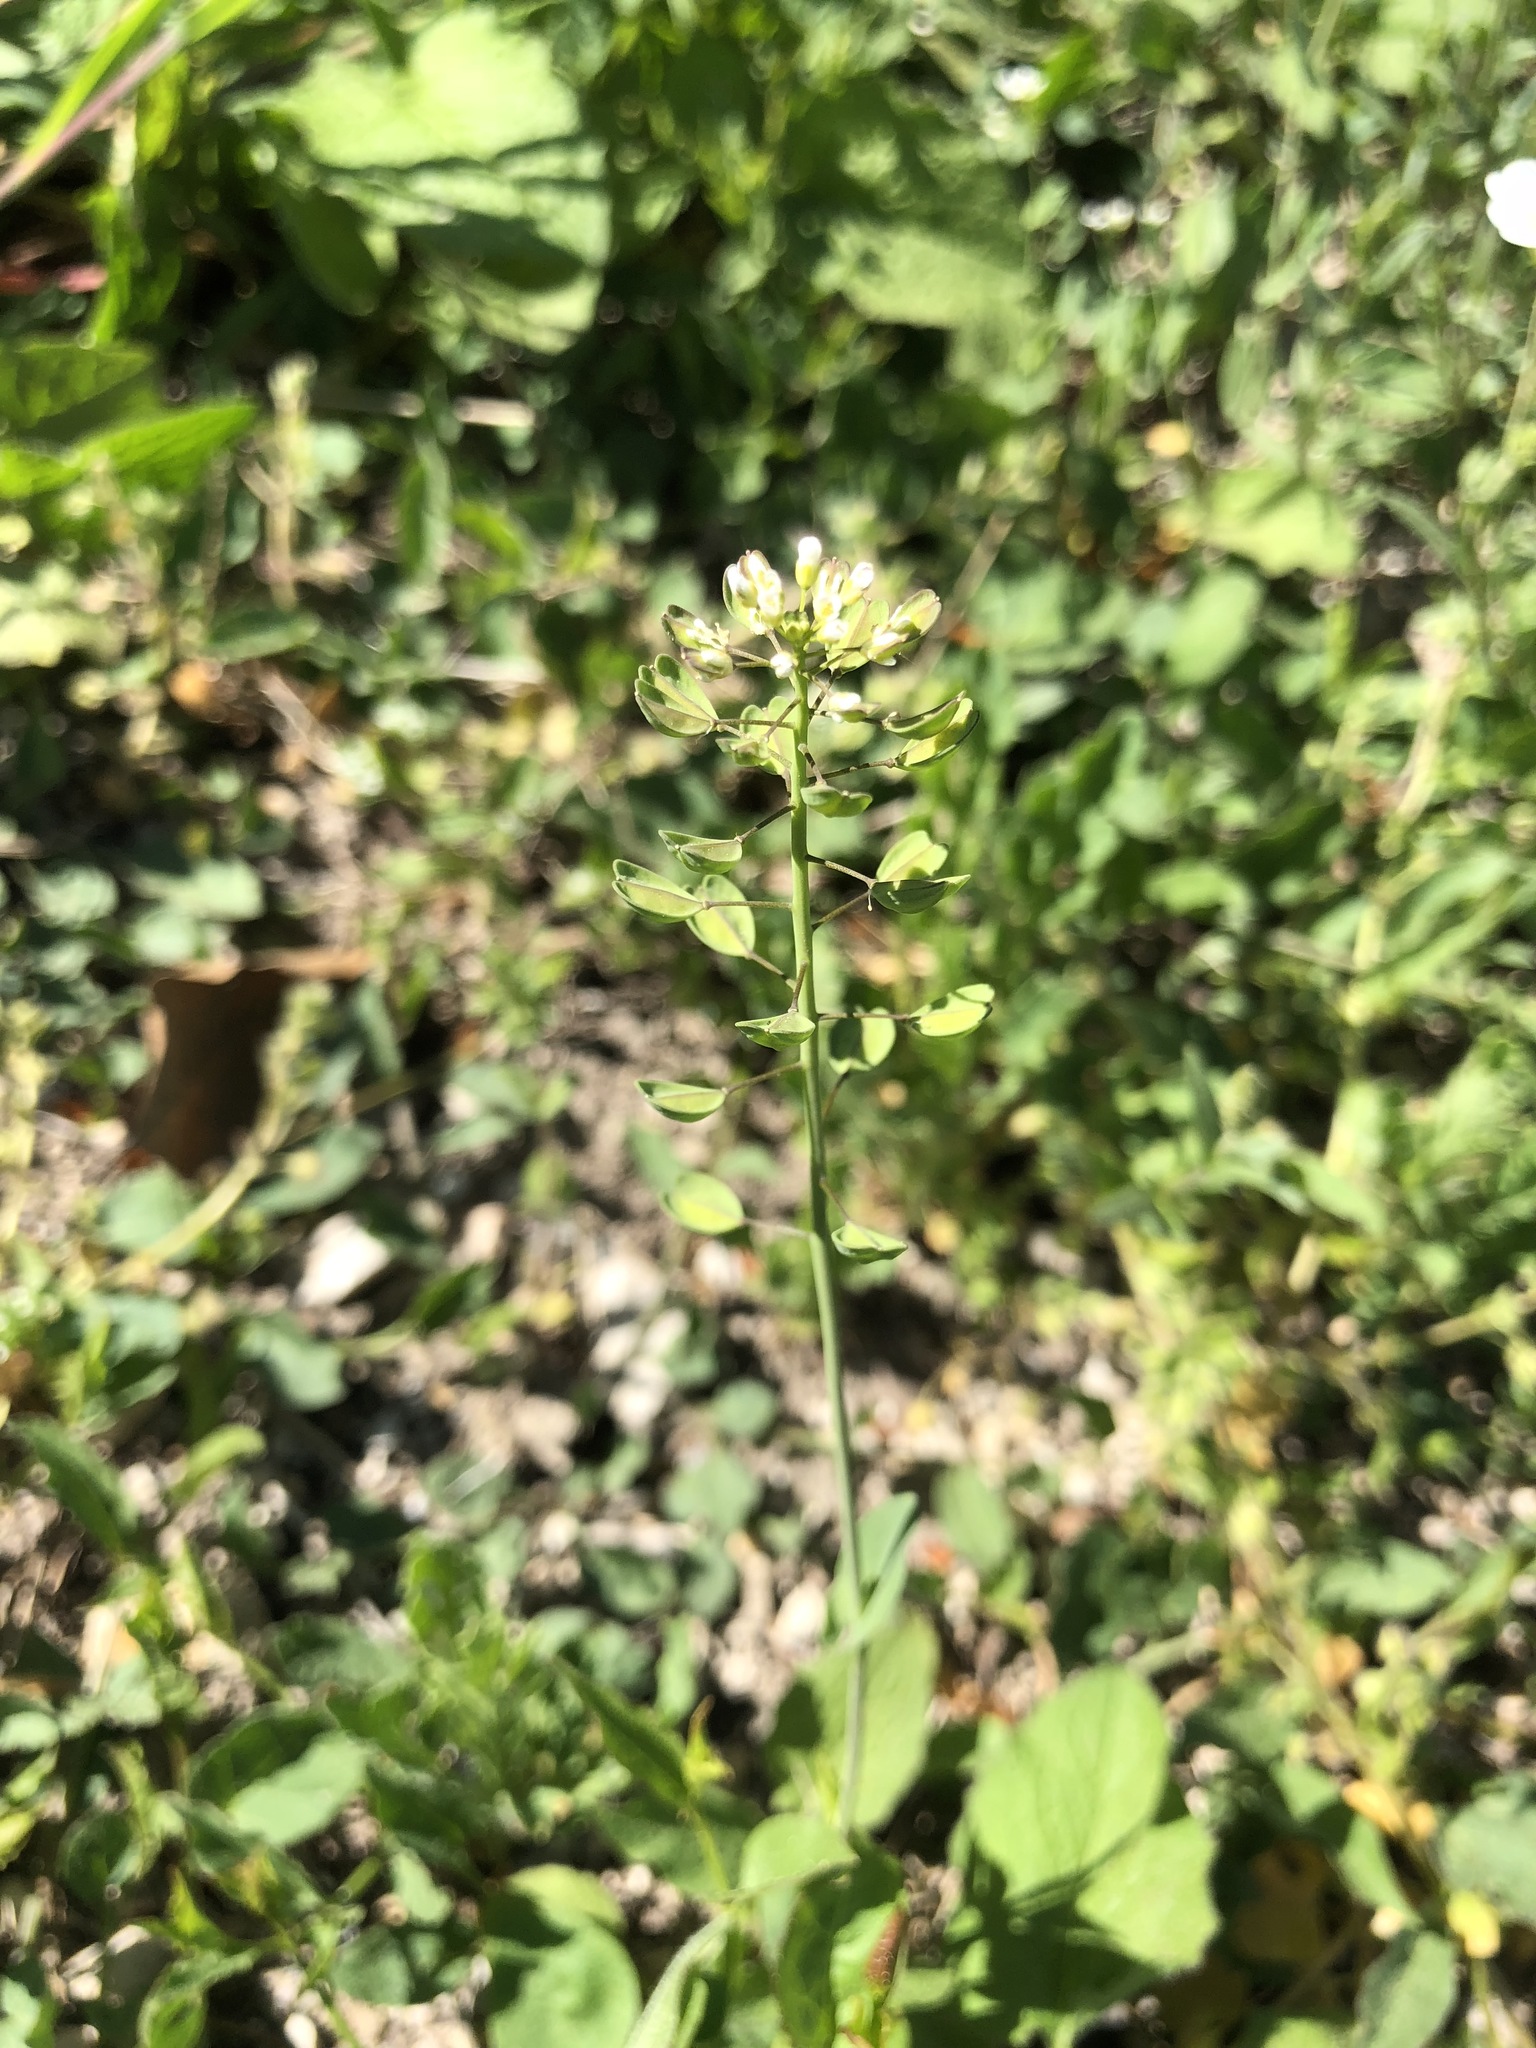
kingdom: Plantae
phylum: Tracheophyta
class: Magnoliopsida
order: Brassicales
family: Brassicaceae
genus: Noccaea
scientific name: Noccaea perfoliata
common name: Perfoliate pennycress
